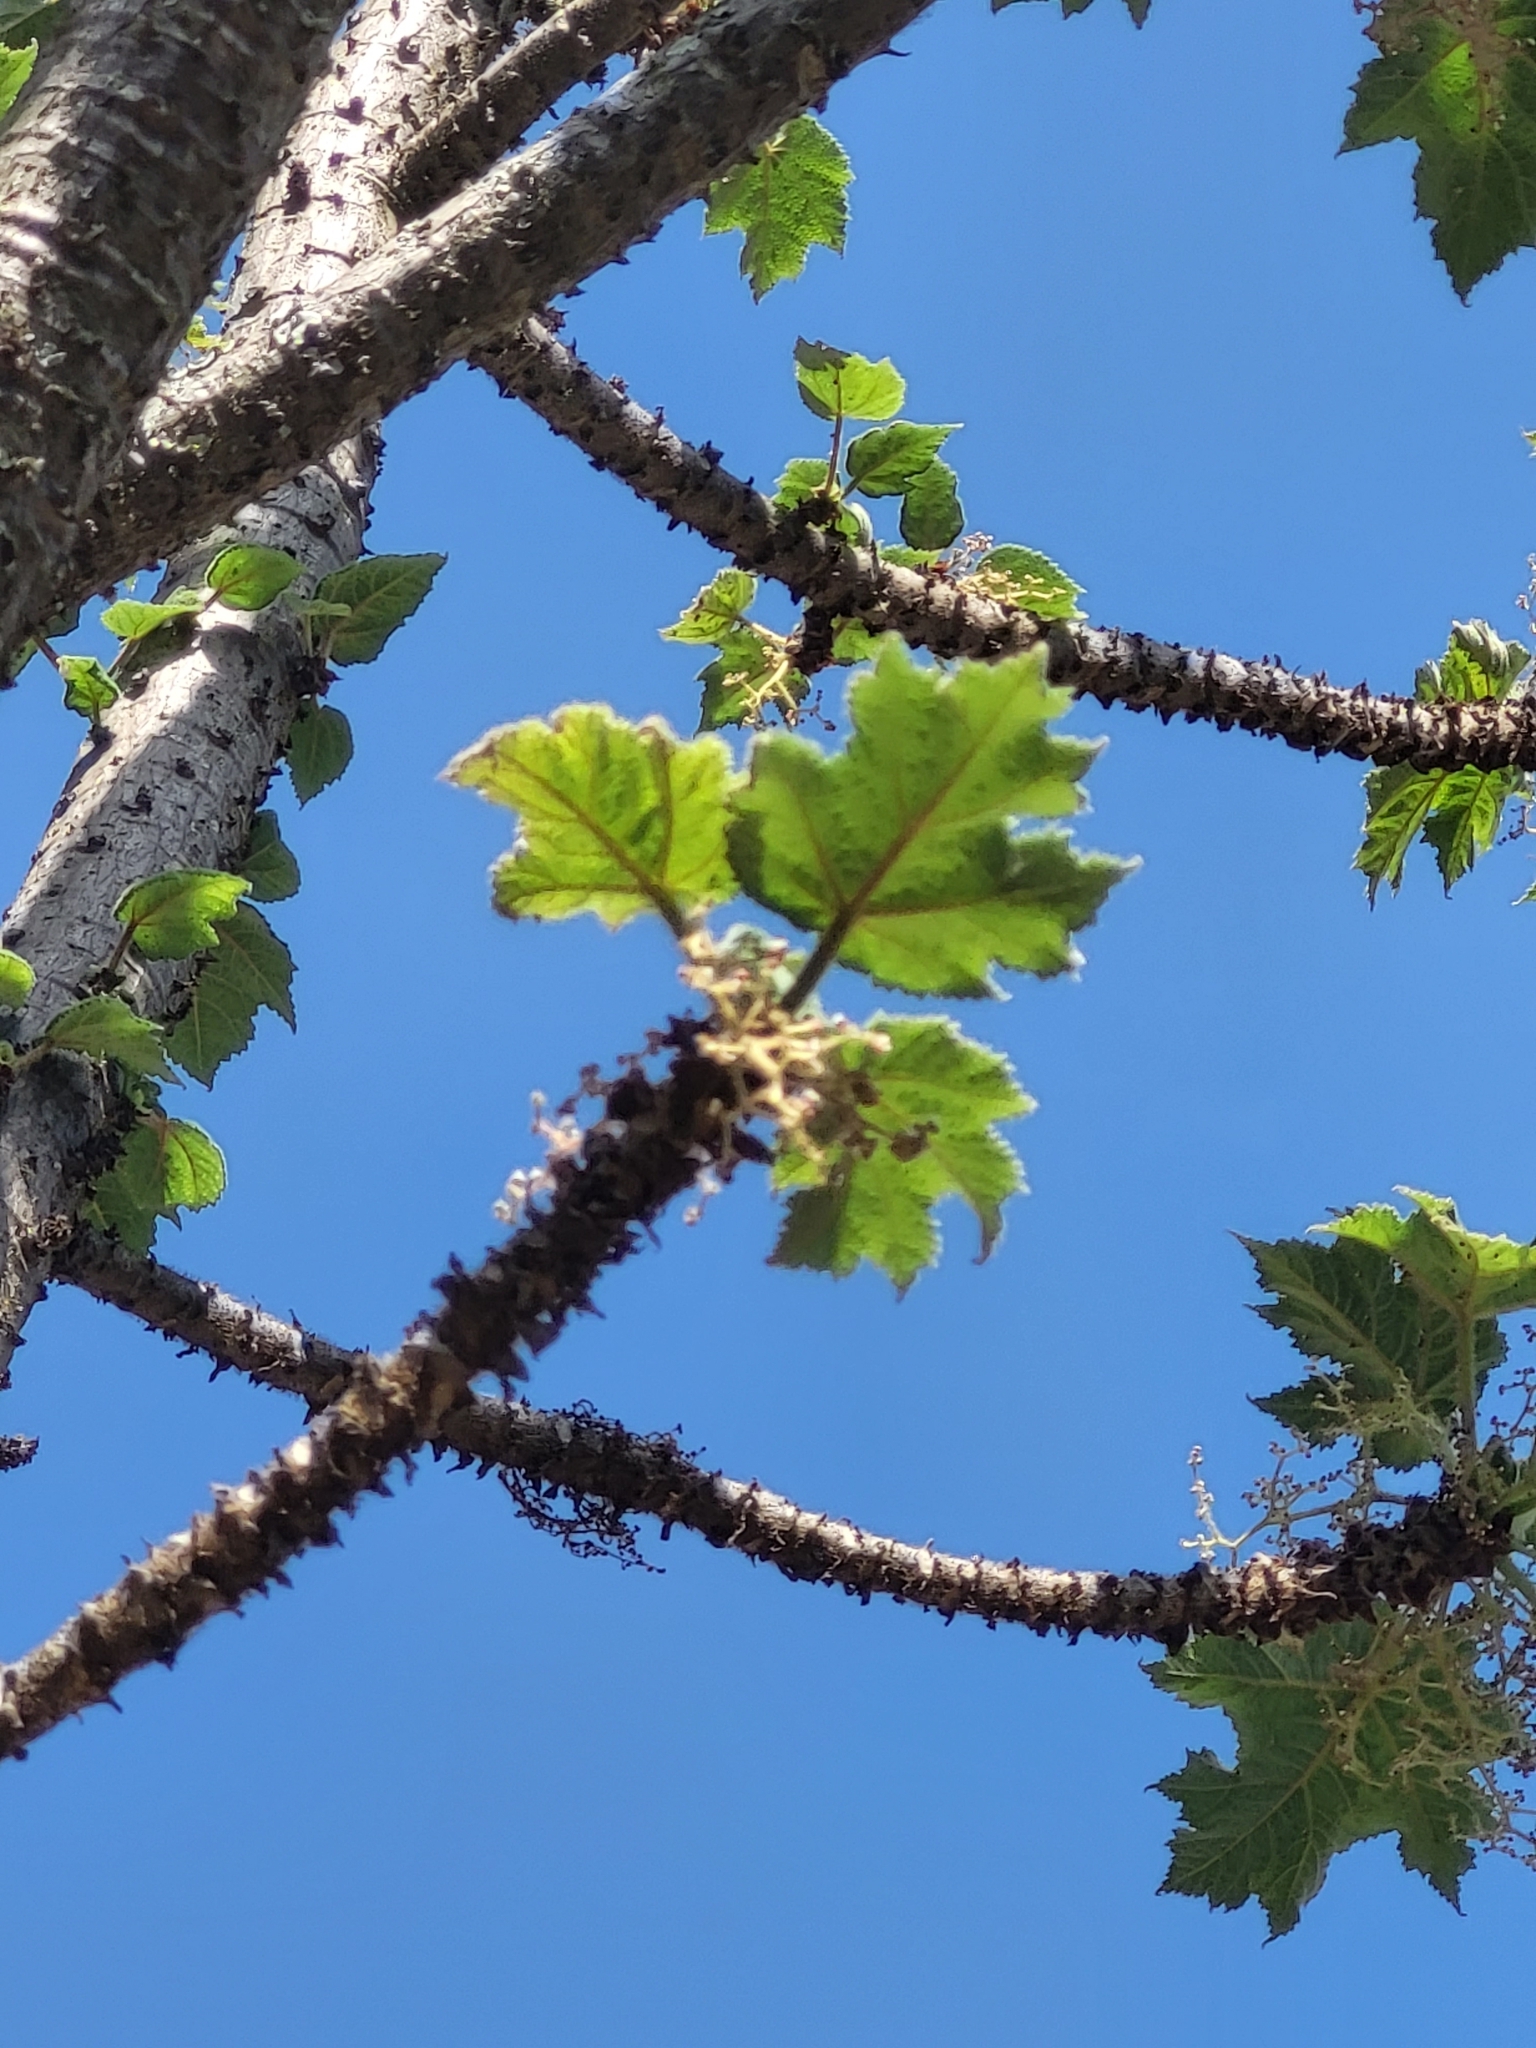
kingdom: Plantae
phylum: Tracheophyta
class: Magnoliopsida
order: Rosales
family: Urticaceae
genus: Obetia
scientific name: Obetia radula
